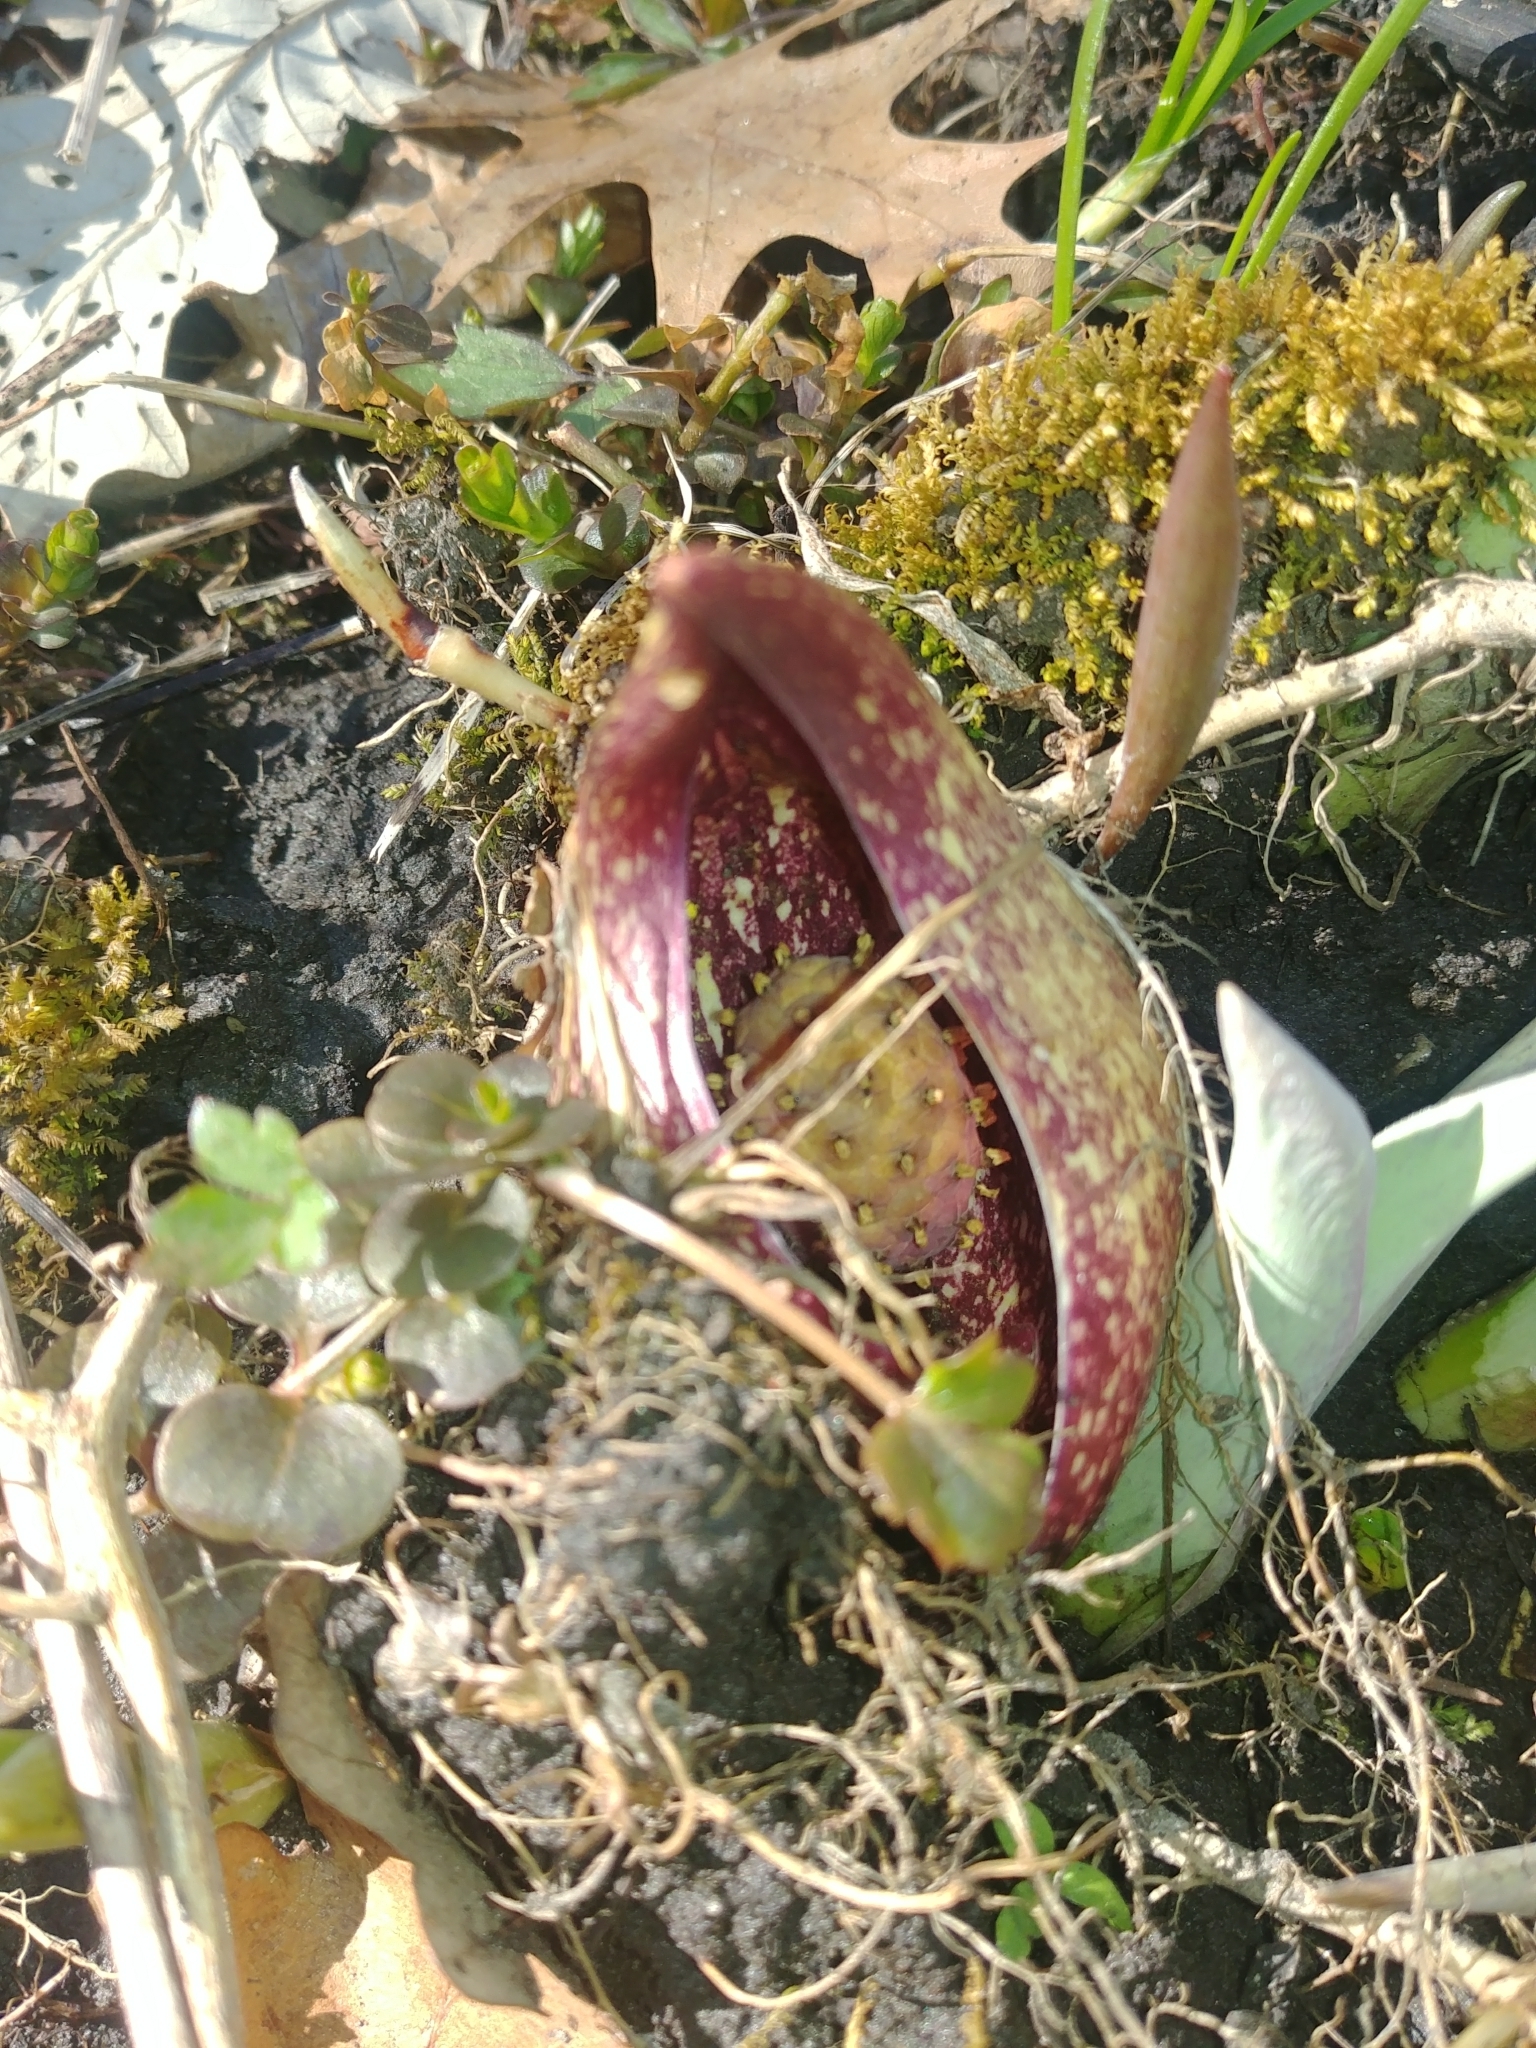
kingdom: Plantae
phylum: Tracheophyta
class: Liliopsida
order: Alismatales
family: Araceae
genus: Symplocarpus
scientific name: Symplocarpus foetidus
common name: Eastern skunk cabbage
